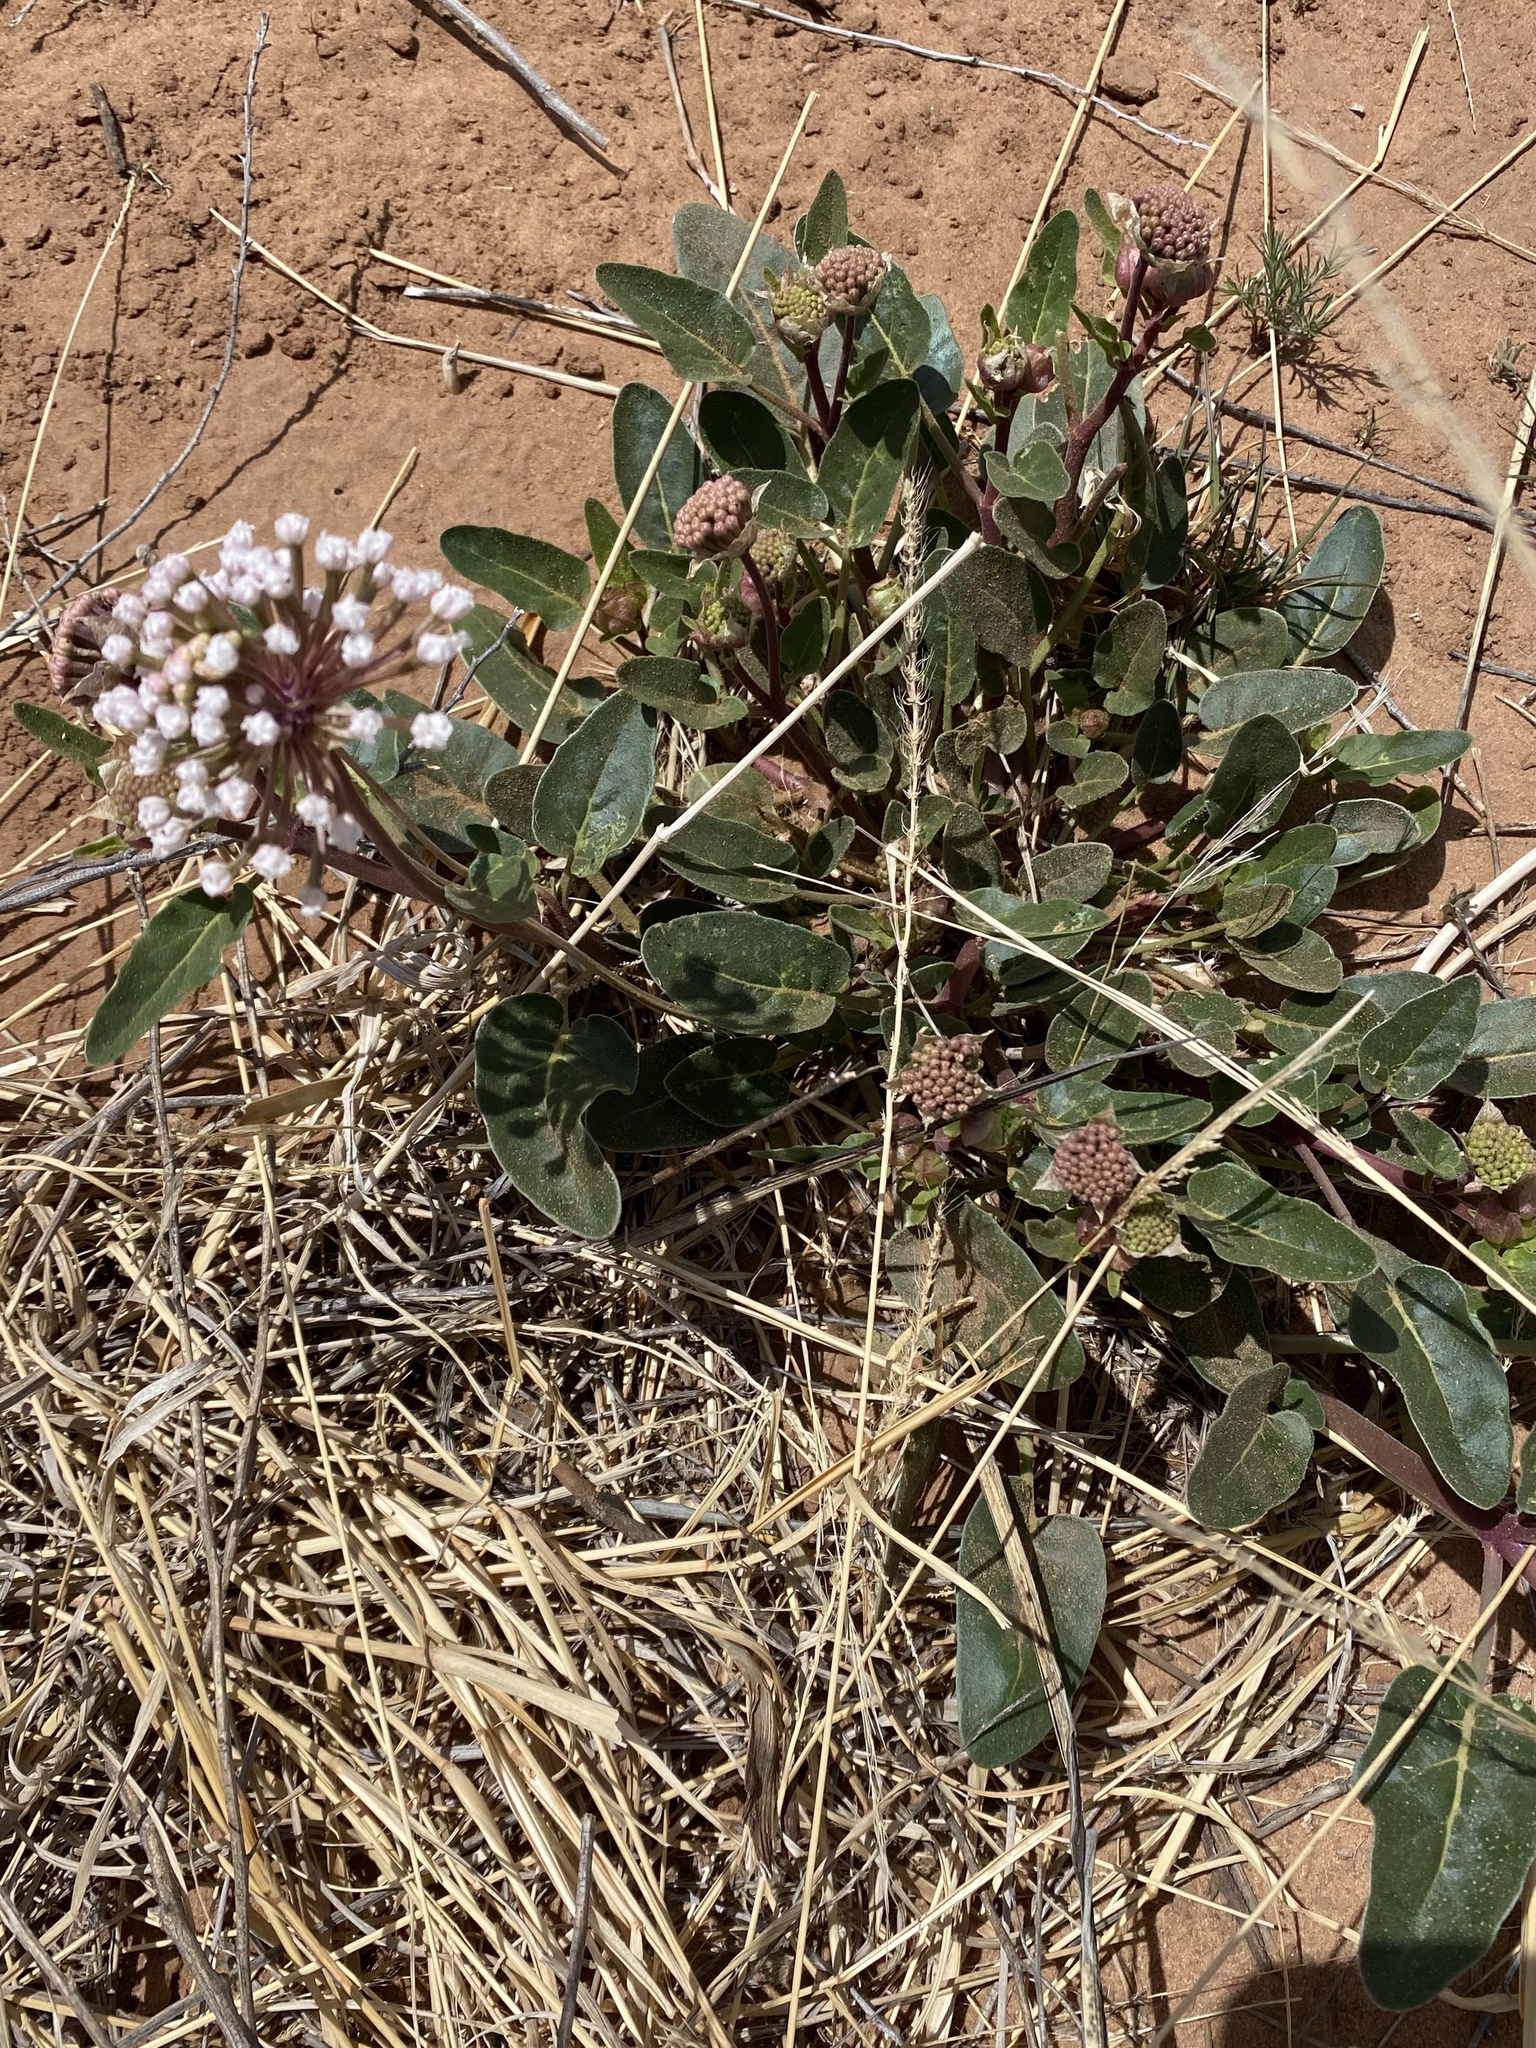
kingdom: Plantae
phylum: Tracheophyta
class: Magnoliopsida
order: Caryophyllales
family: Nyctaginaceae
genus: Abronia
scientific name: Abronia fragrans
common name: Fragrant sand-verbena
